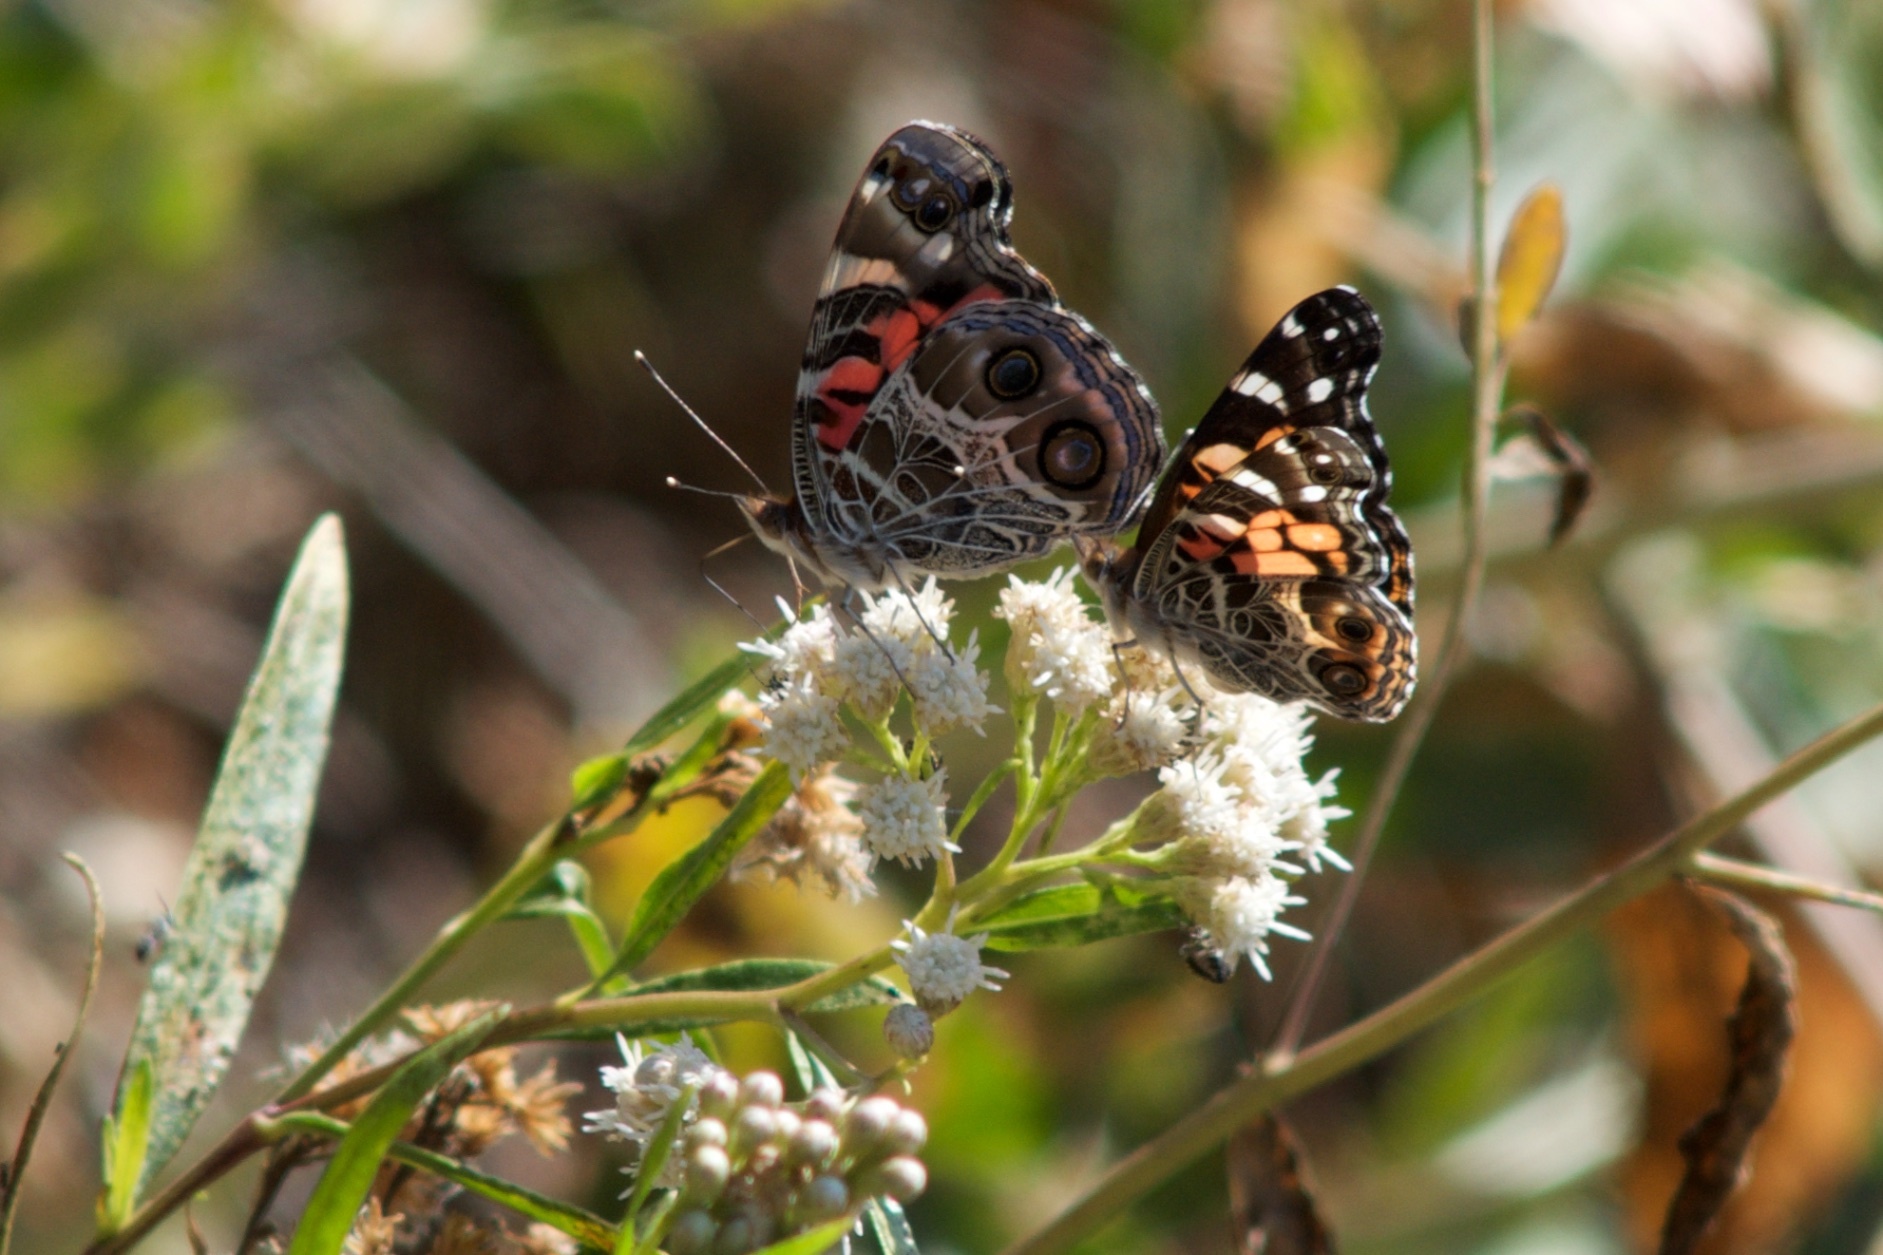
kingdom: Animalia
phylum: Arthropoda
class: Insecta
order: Lepidoptera
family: Nymphalidae
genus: Vanessa
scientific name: Vanessa virginiensis
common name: American lady
